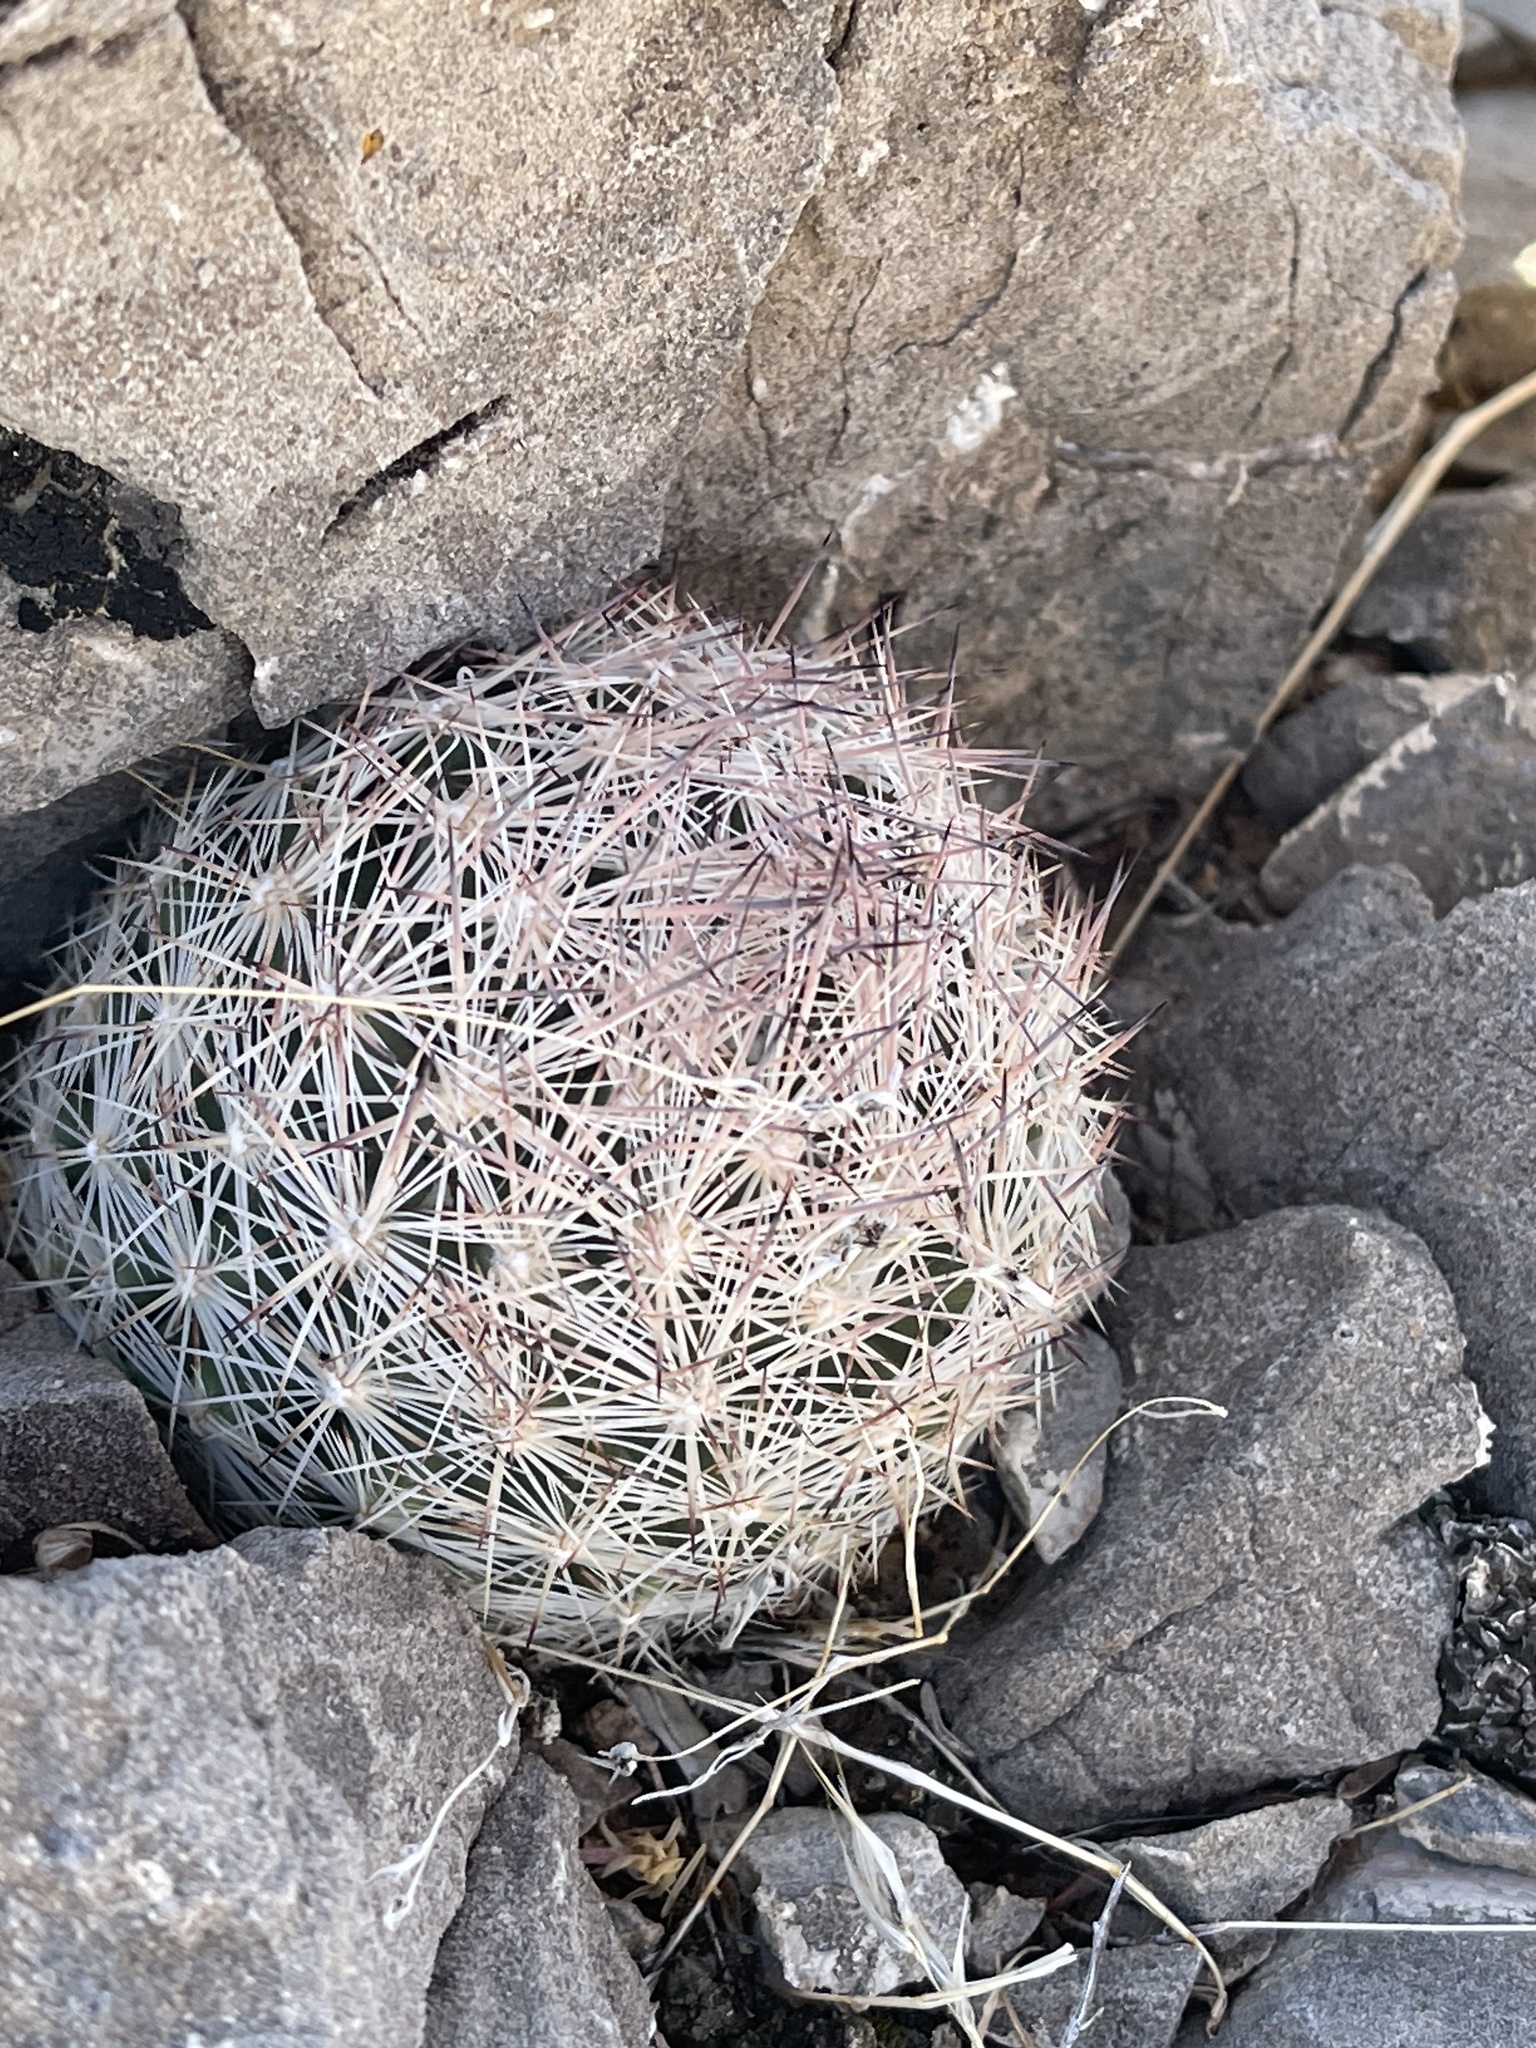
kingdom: Plantae
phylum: Tracheophyta
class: Magnoliopsida
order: Caryophyllales
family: Cactaceae
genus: Pelecyphora
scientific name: Pelecyphora dasyacantha
